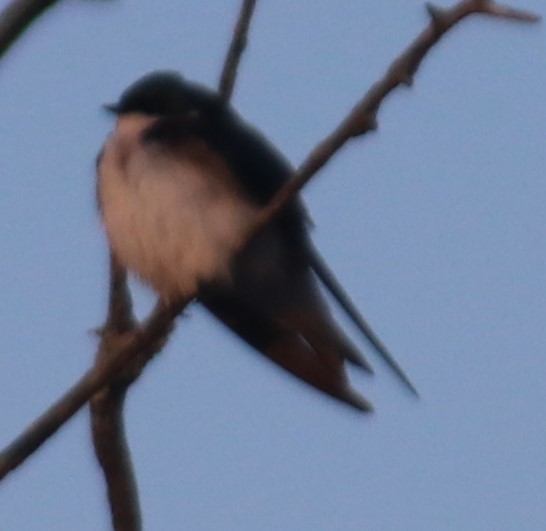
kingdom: Animalia
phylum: Chordata
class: Aves
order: Passeriformes
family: Hirundinidae
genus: Tachycineta
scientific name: Tachycineta bicolor
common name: Tree swallow
